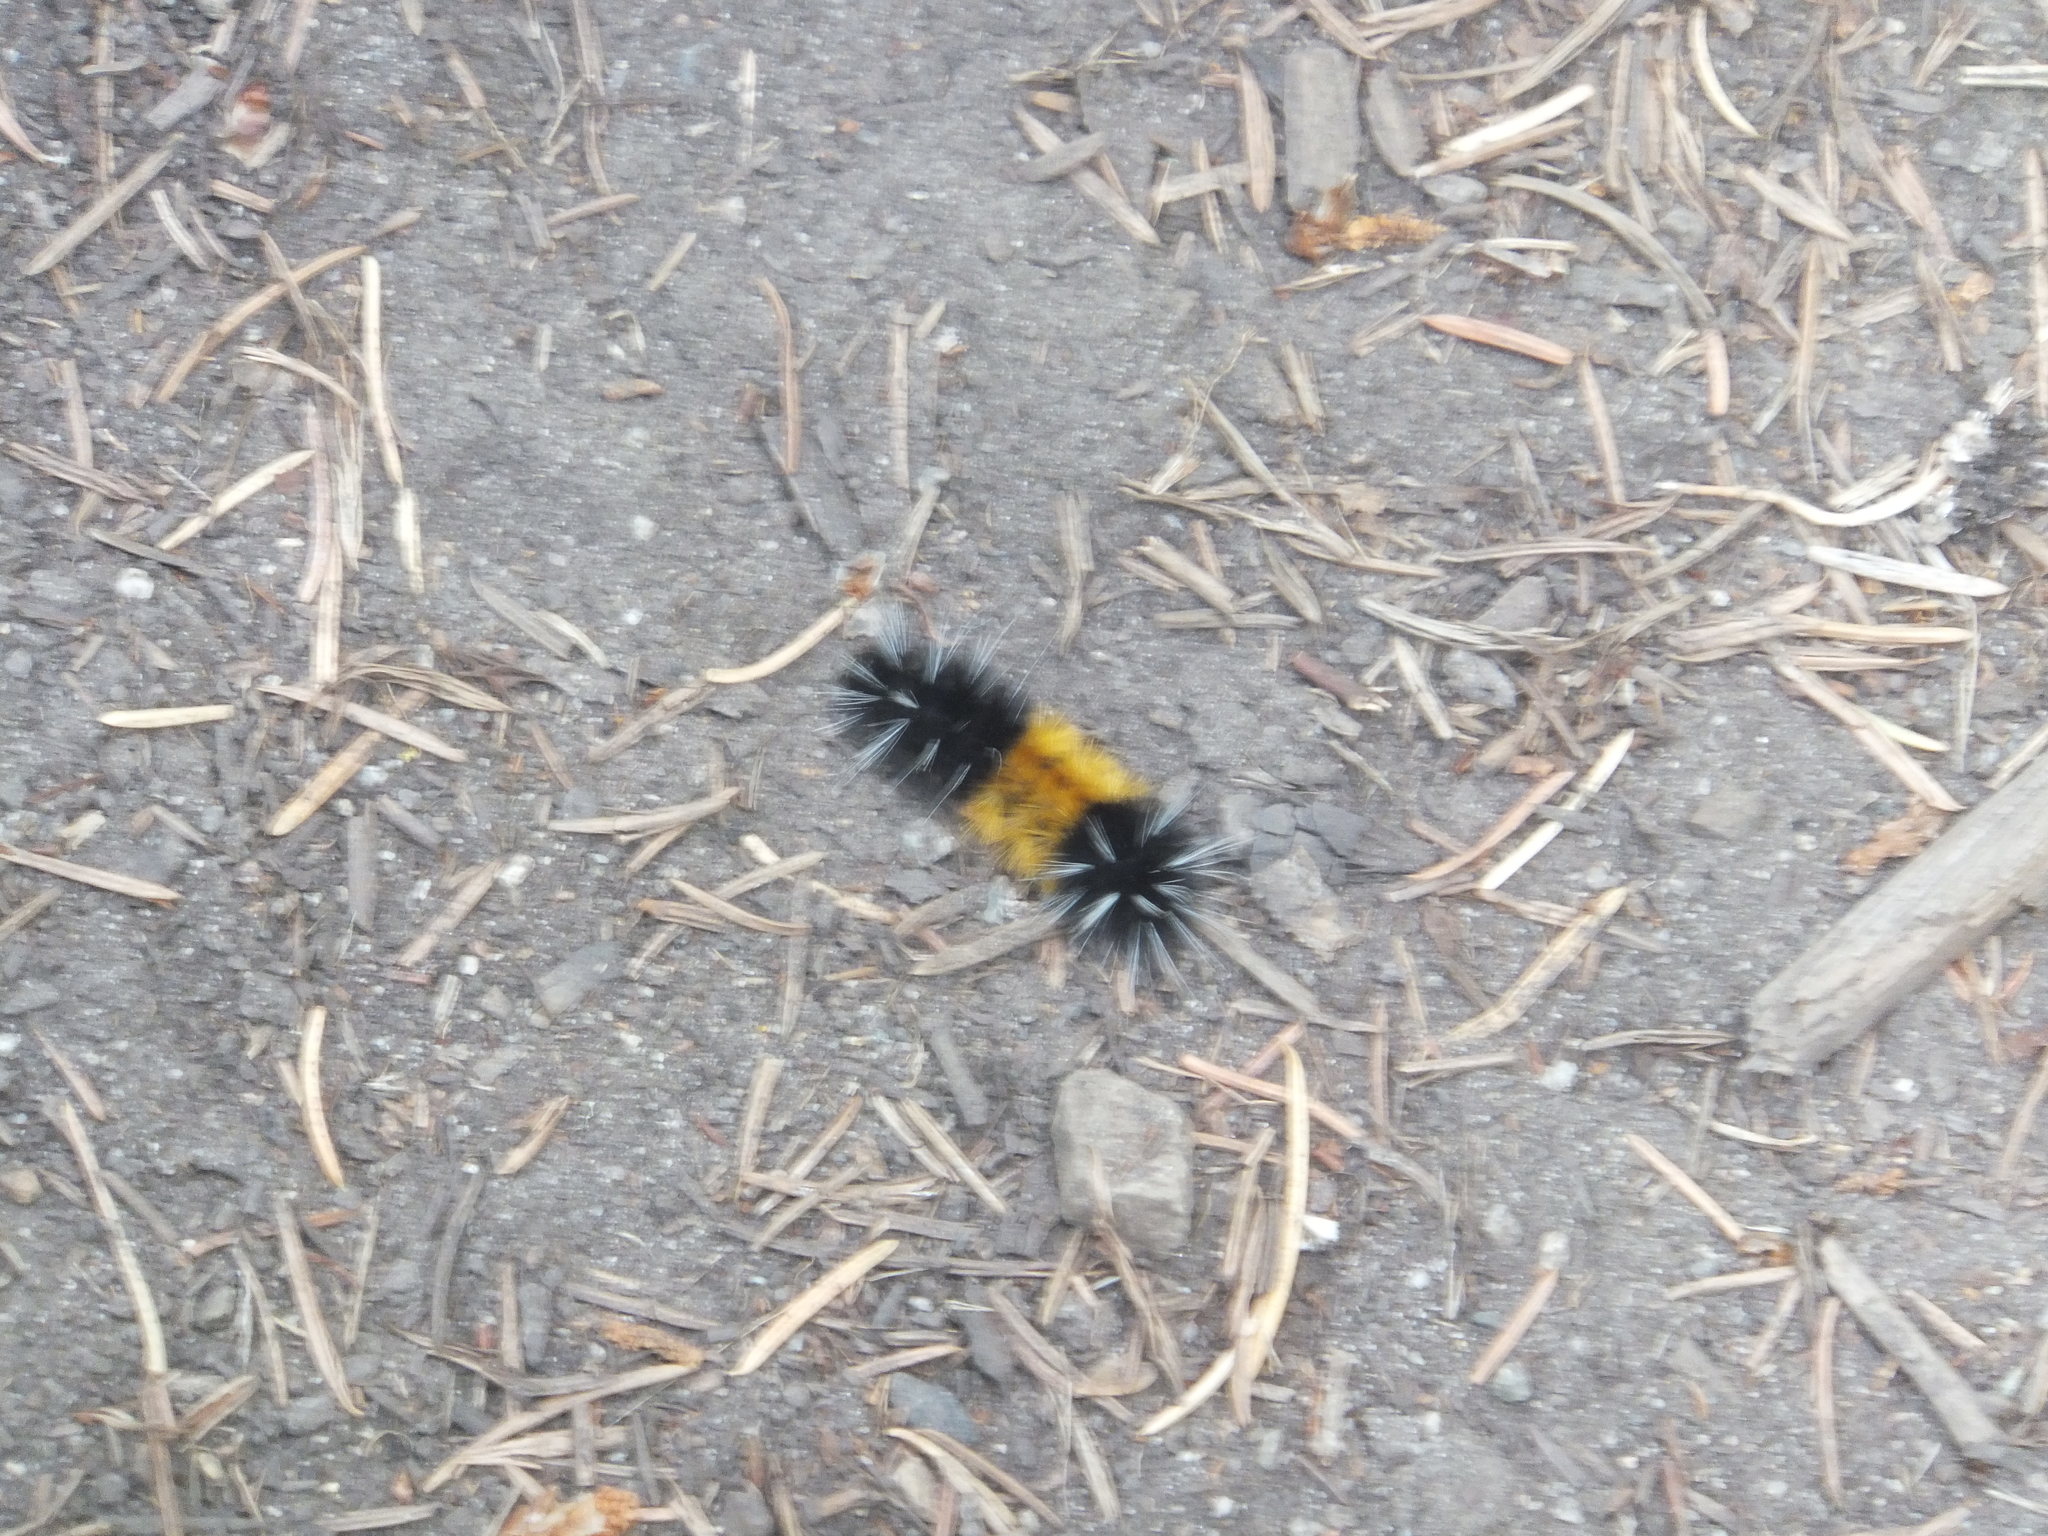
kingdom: Animalia
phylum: Arthropoda
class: Insecta
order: Lepidoptera
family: Erebidae
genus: Lophocampa
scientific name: Lophocampa maculata
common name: Spotted tussock moth
